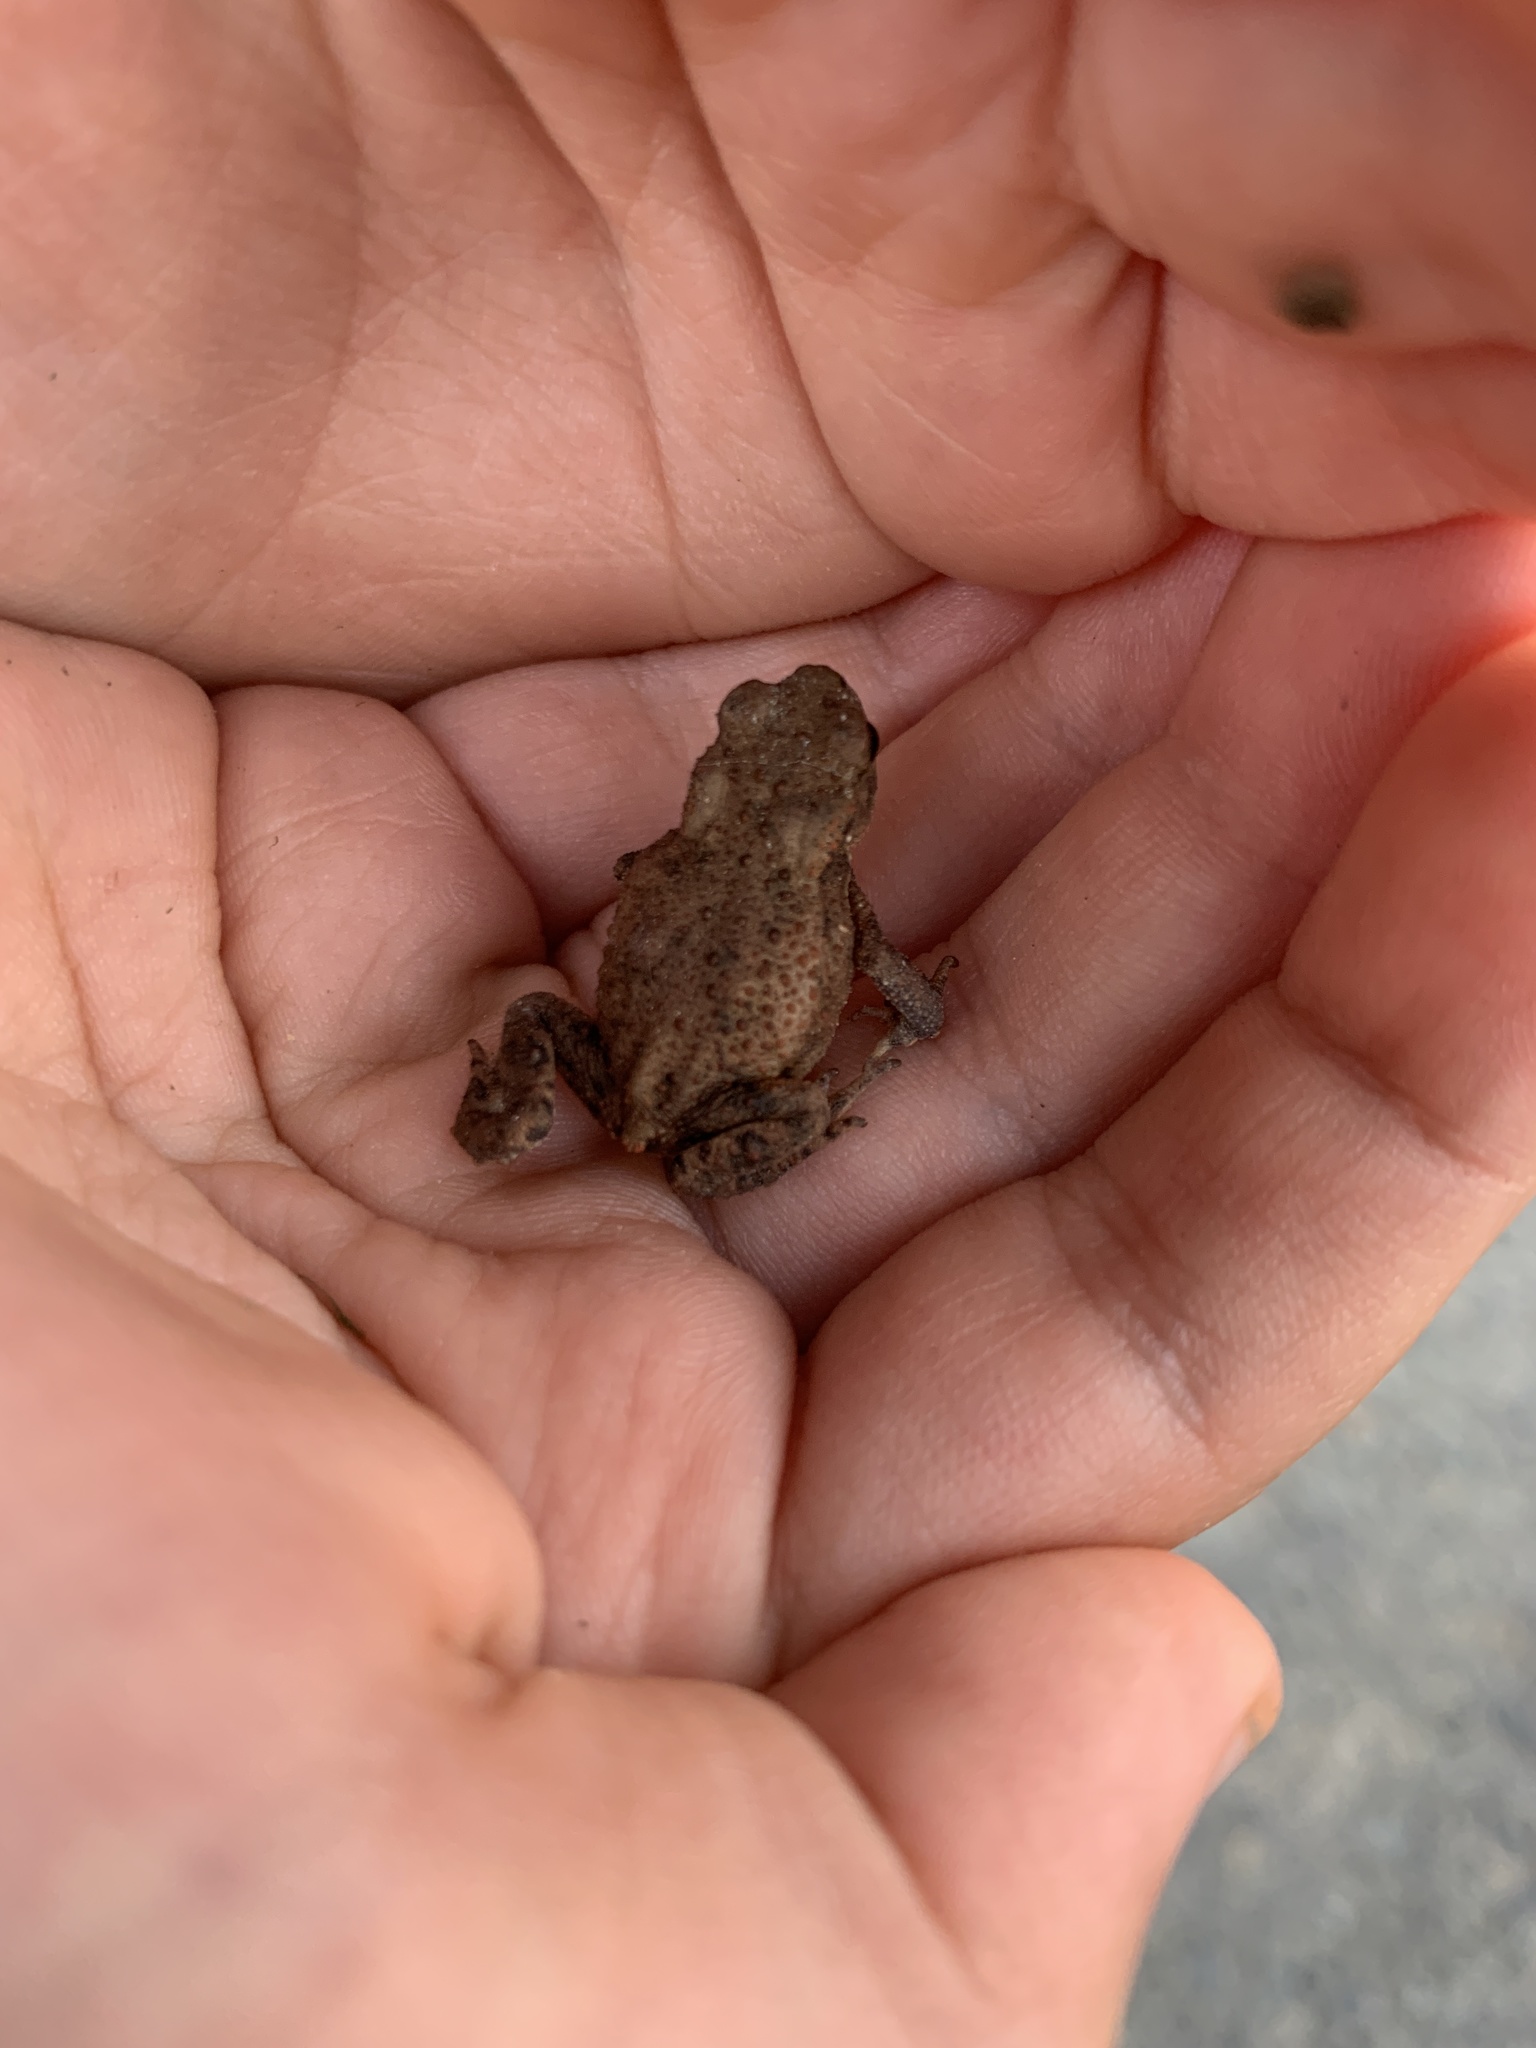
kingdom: Animalia
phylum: Chordata
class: Amphibia
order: Anura
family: Bufonidae
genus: Bufo
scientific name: Bufo bufo
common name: Common toad
